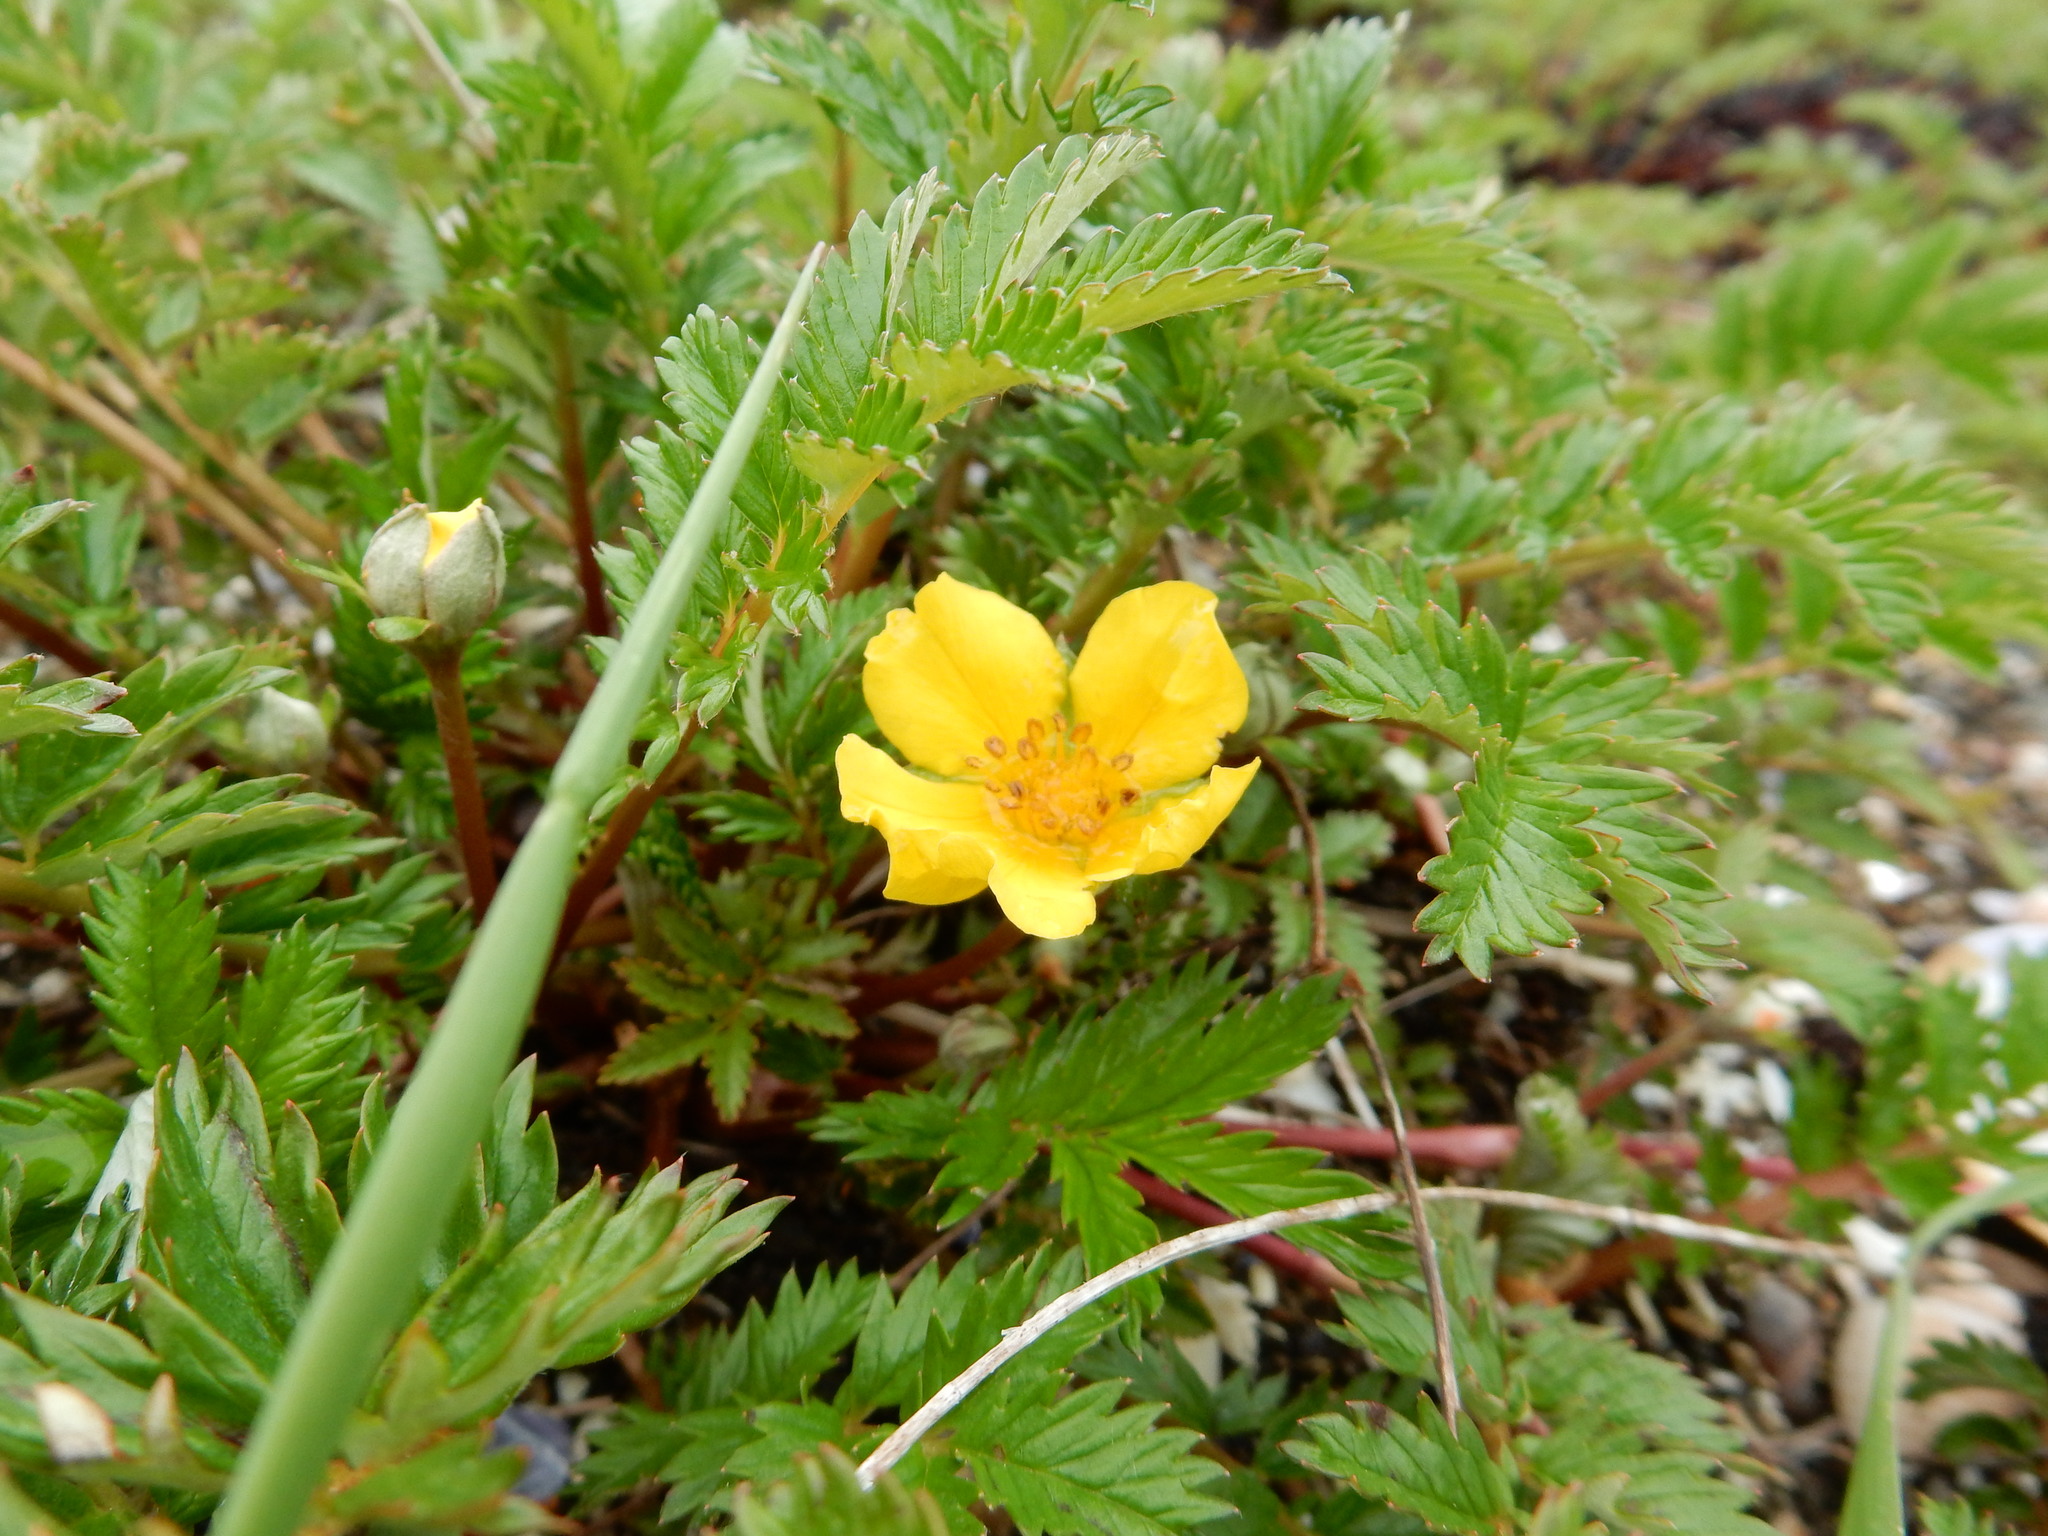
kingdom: Plantae
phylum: Tracheophyta
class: Magnoliopsida
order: Rosales
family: Rosaceae
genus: Argentina
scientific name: Argentina anserina
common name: Common silverweed
